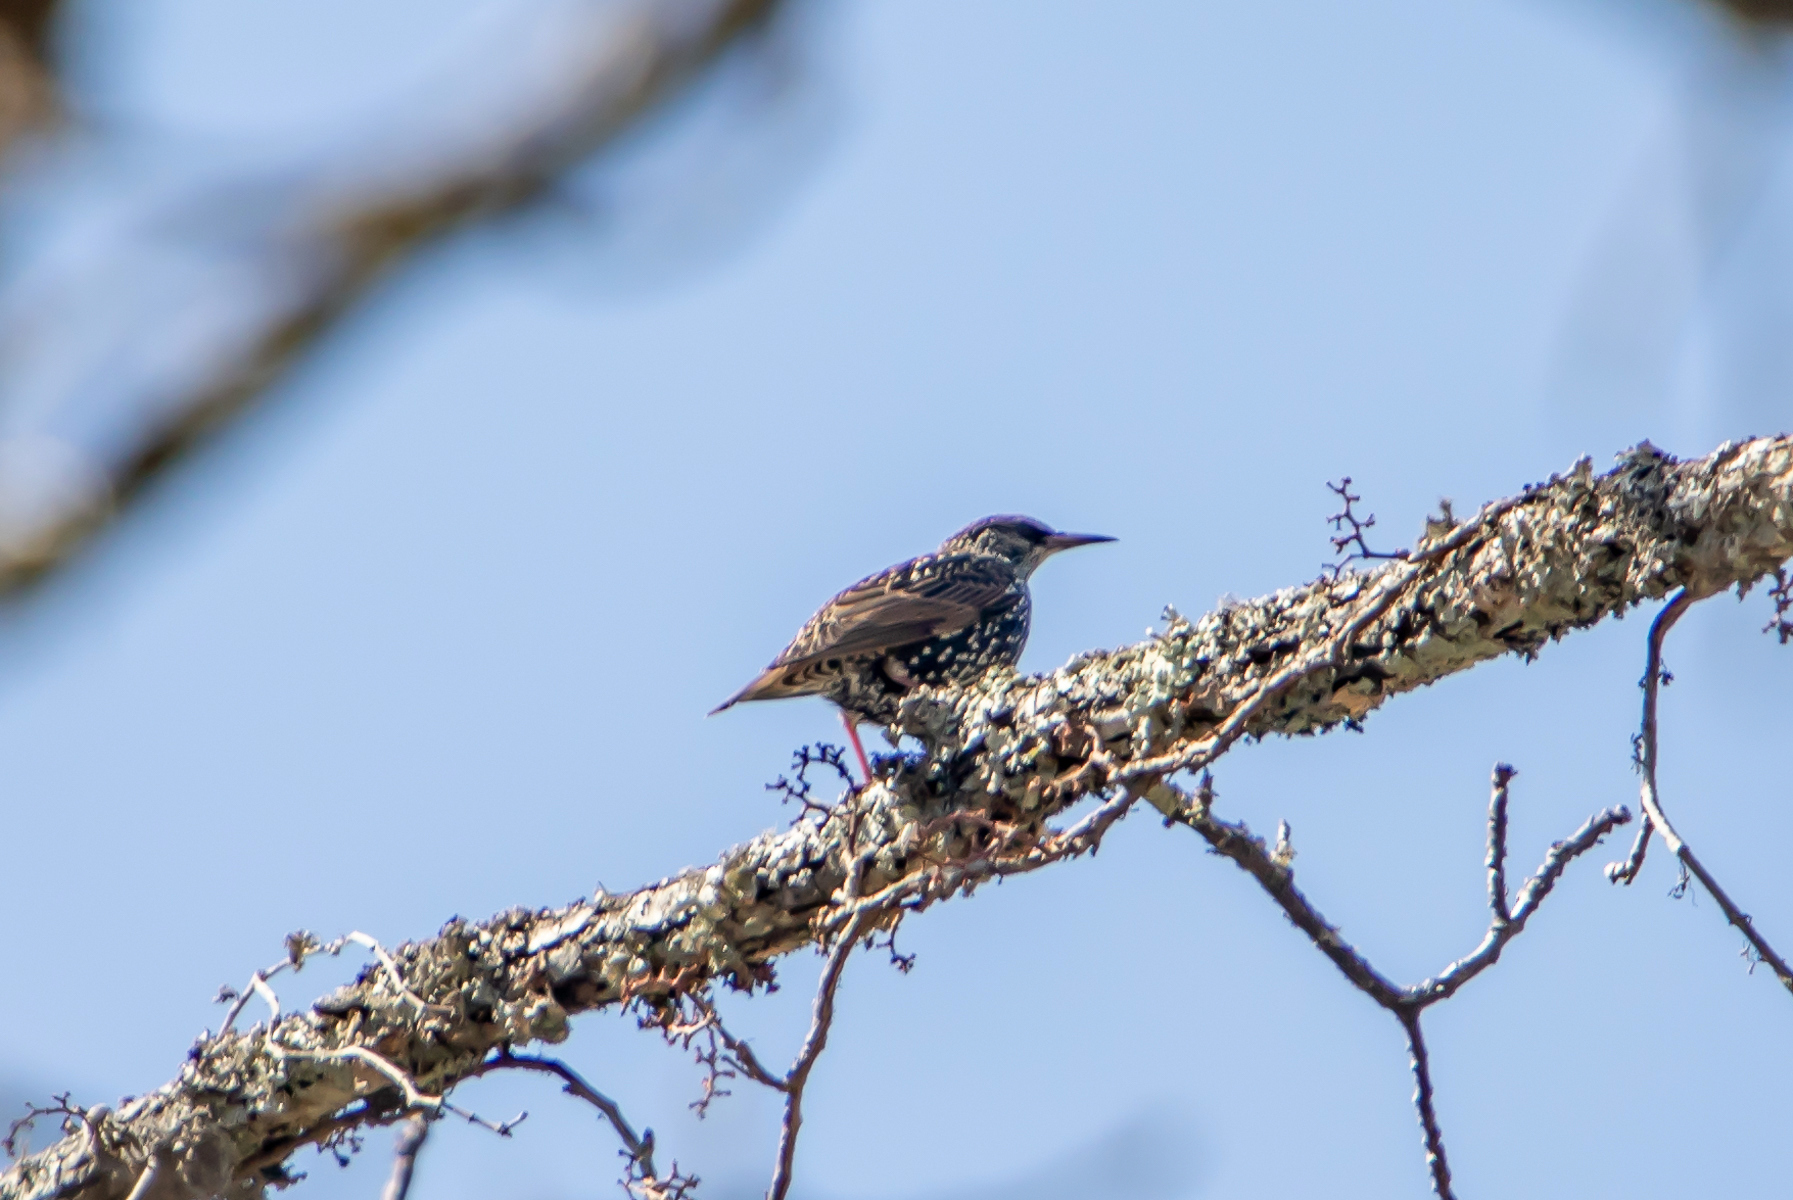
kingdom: Animalia
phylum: Chordata
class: Aves
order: Passeriformes
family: Sturnidae
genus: Sturnus
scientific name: Sturnus vulgaris
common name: Common starling
